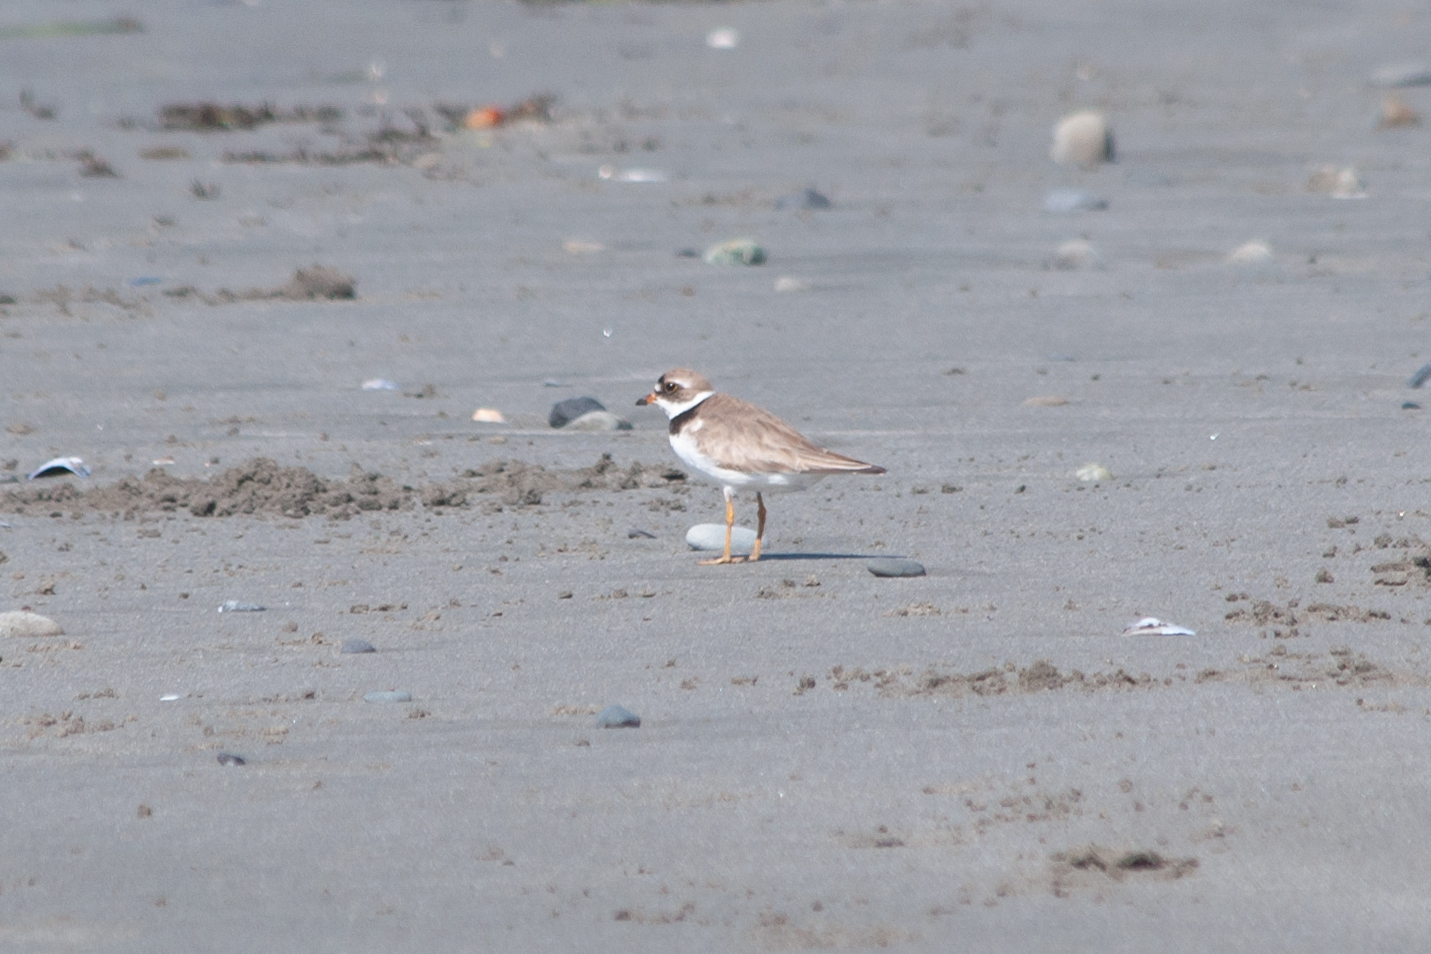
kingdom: Animalia
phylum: Chordata
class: Aves
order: Charadriiformes
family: Charadriidae
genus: Charadrius
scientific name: Charadrius semipalmatus
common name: Semipalmated plover
